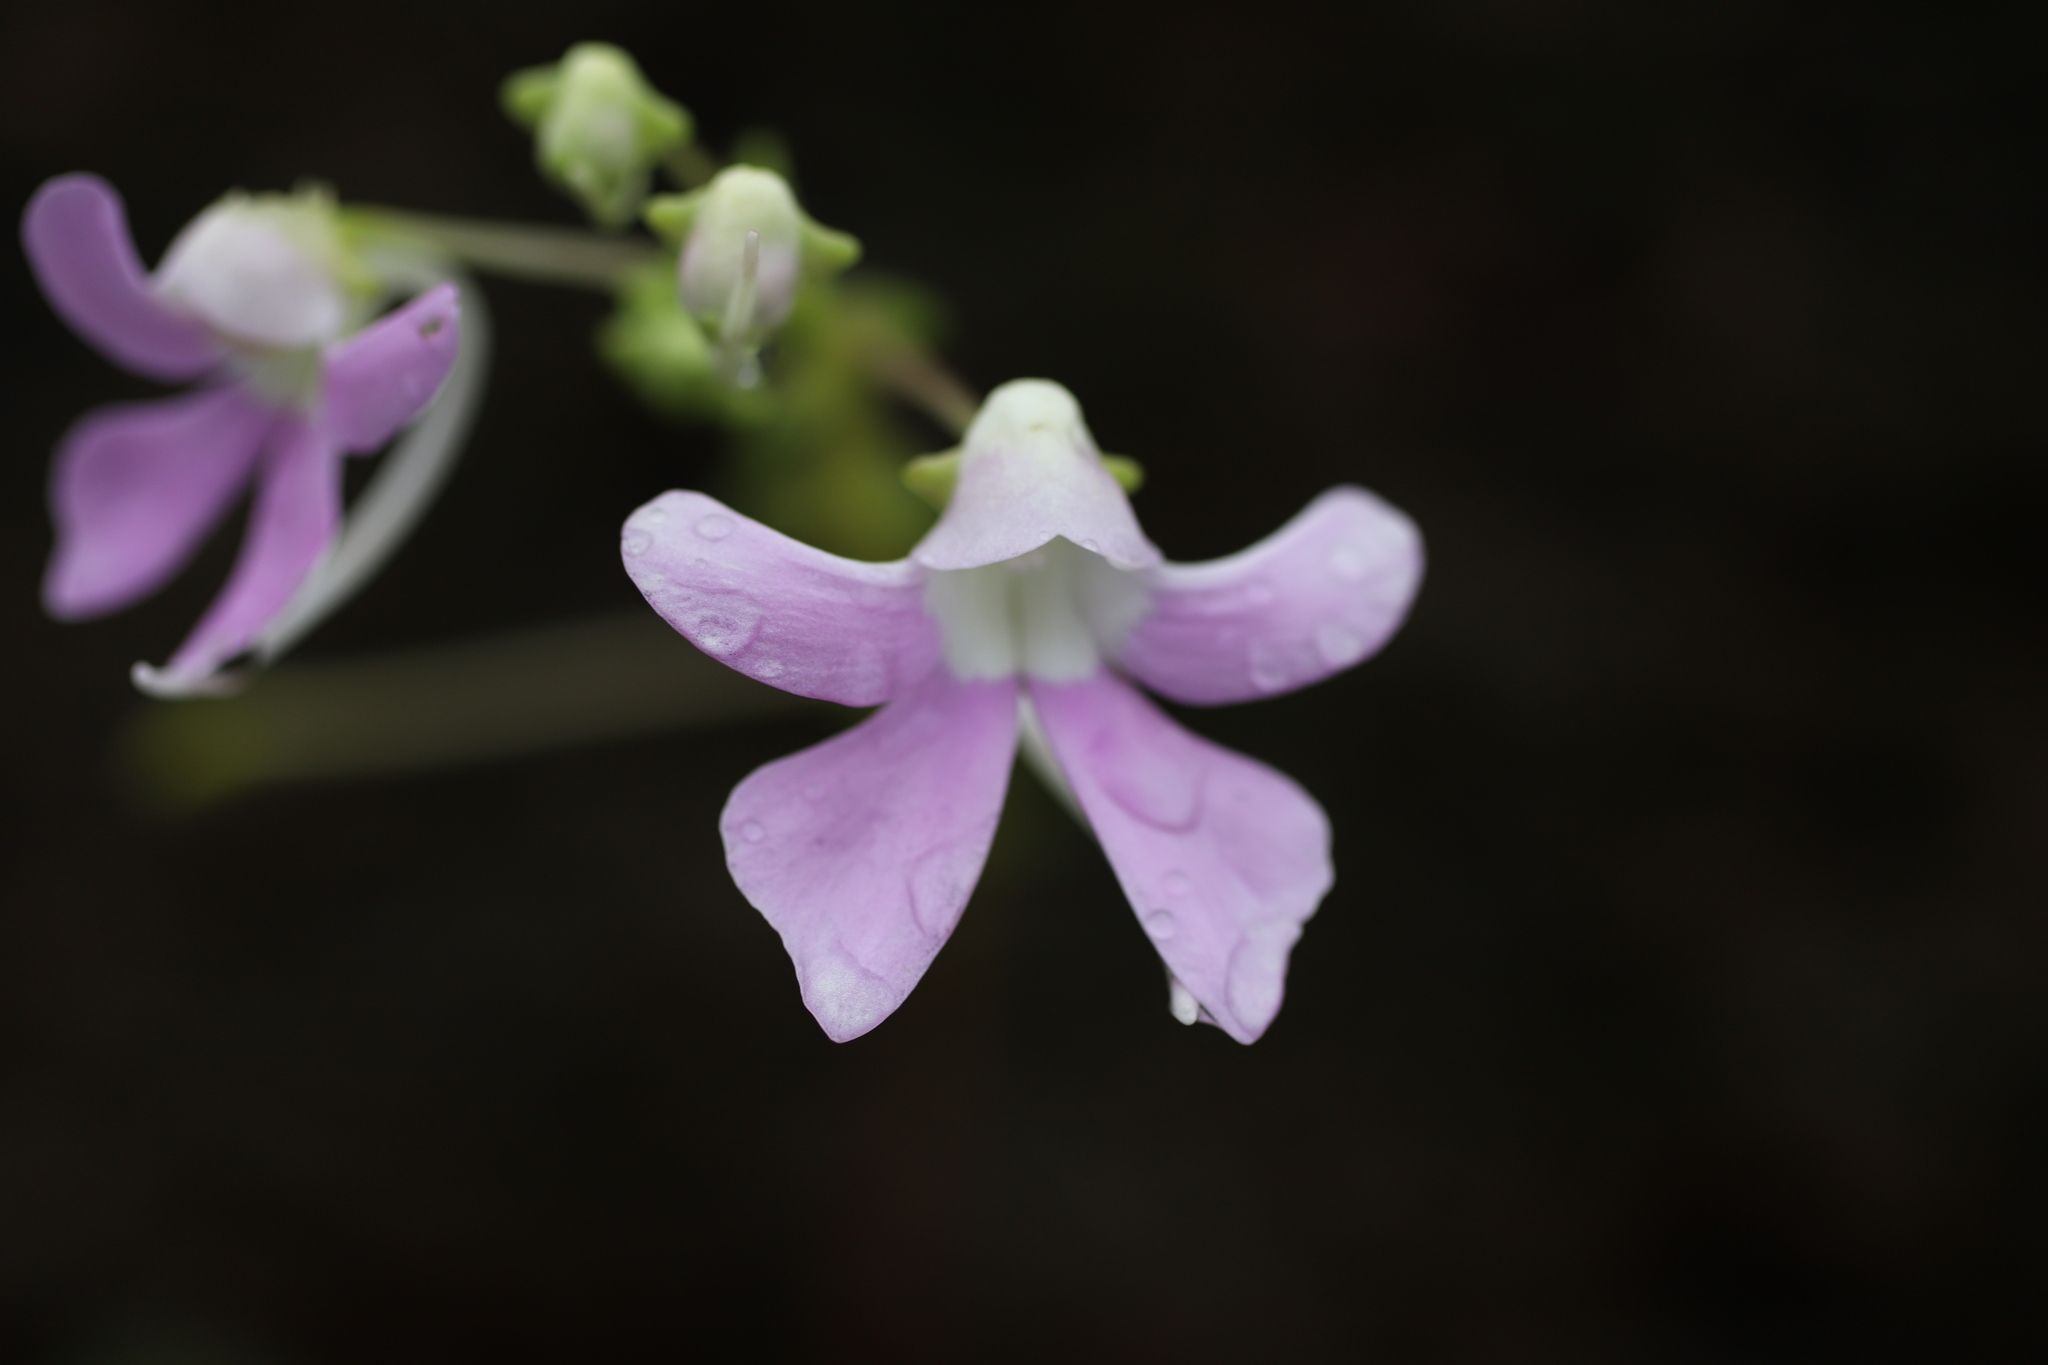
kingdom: Plantae
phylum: Tracheophyta
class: Magnoliopsida
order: Ericales
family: Balsaminaceae
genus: Impatiens
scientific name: Impatiens acaulis
